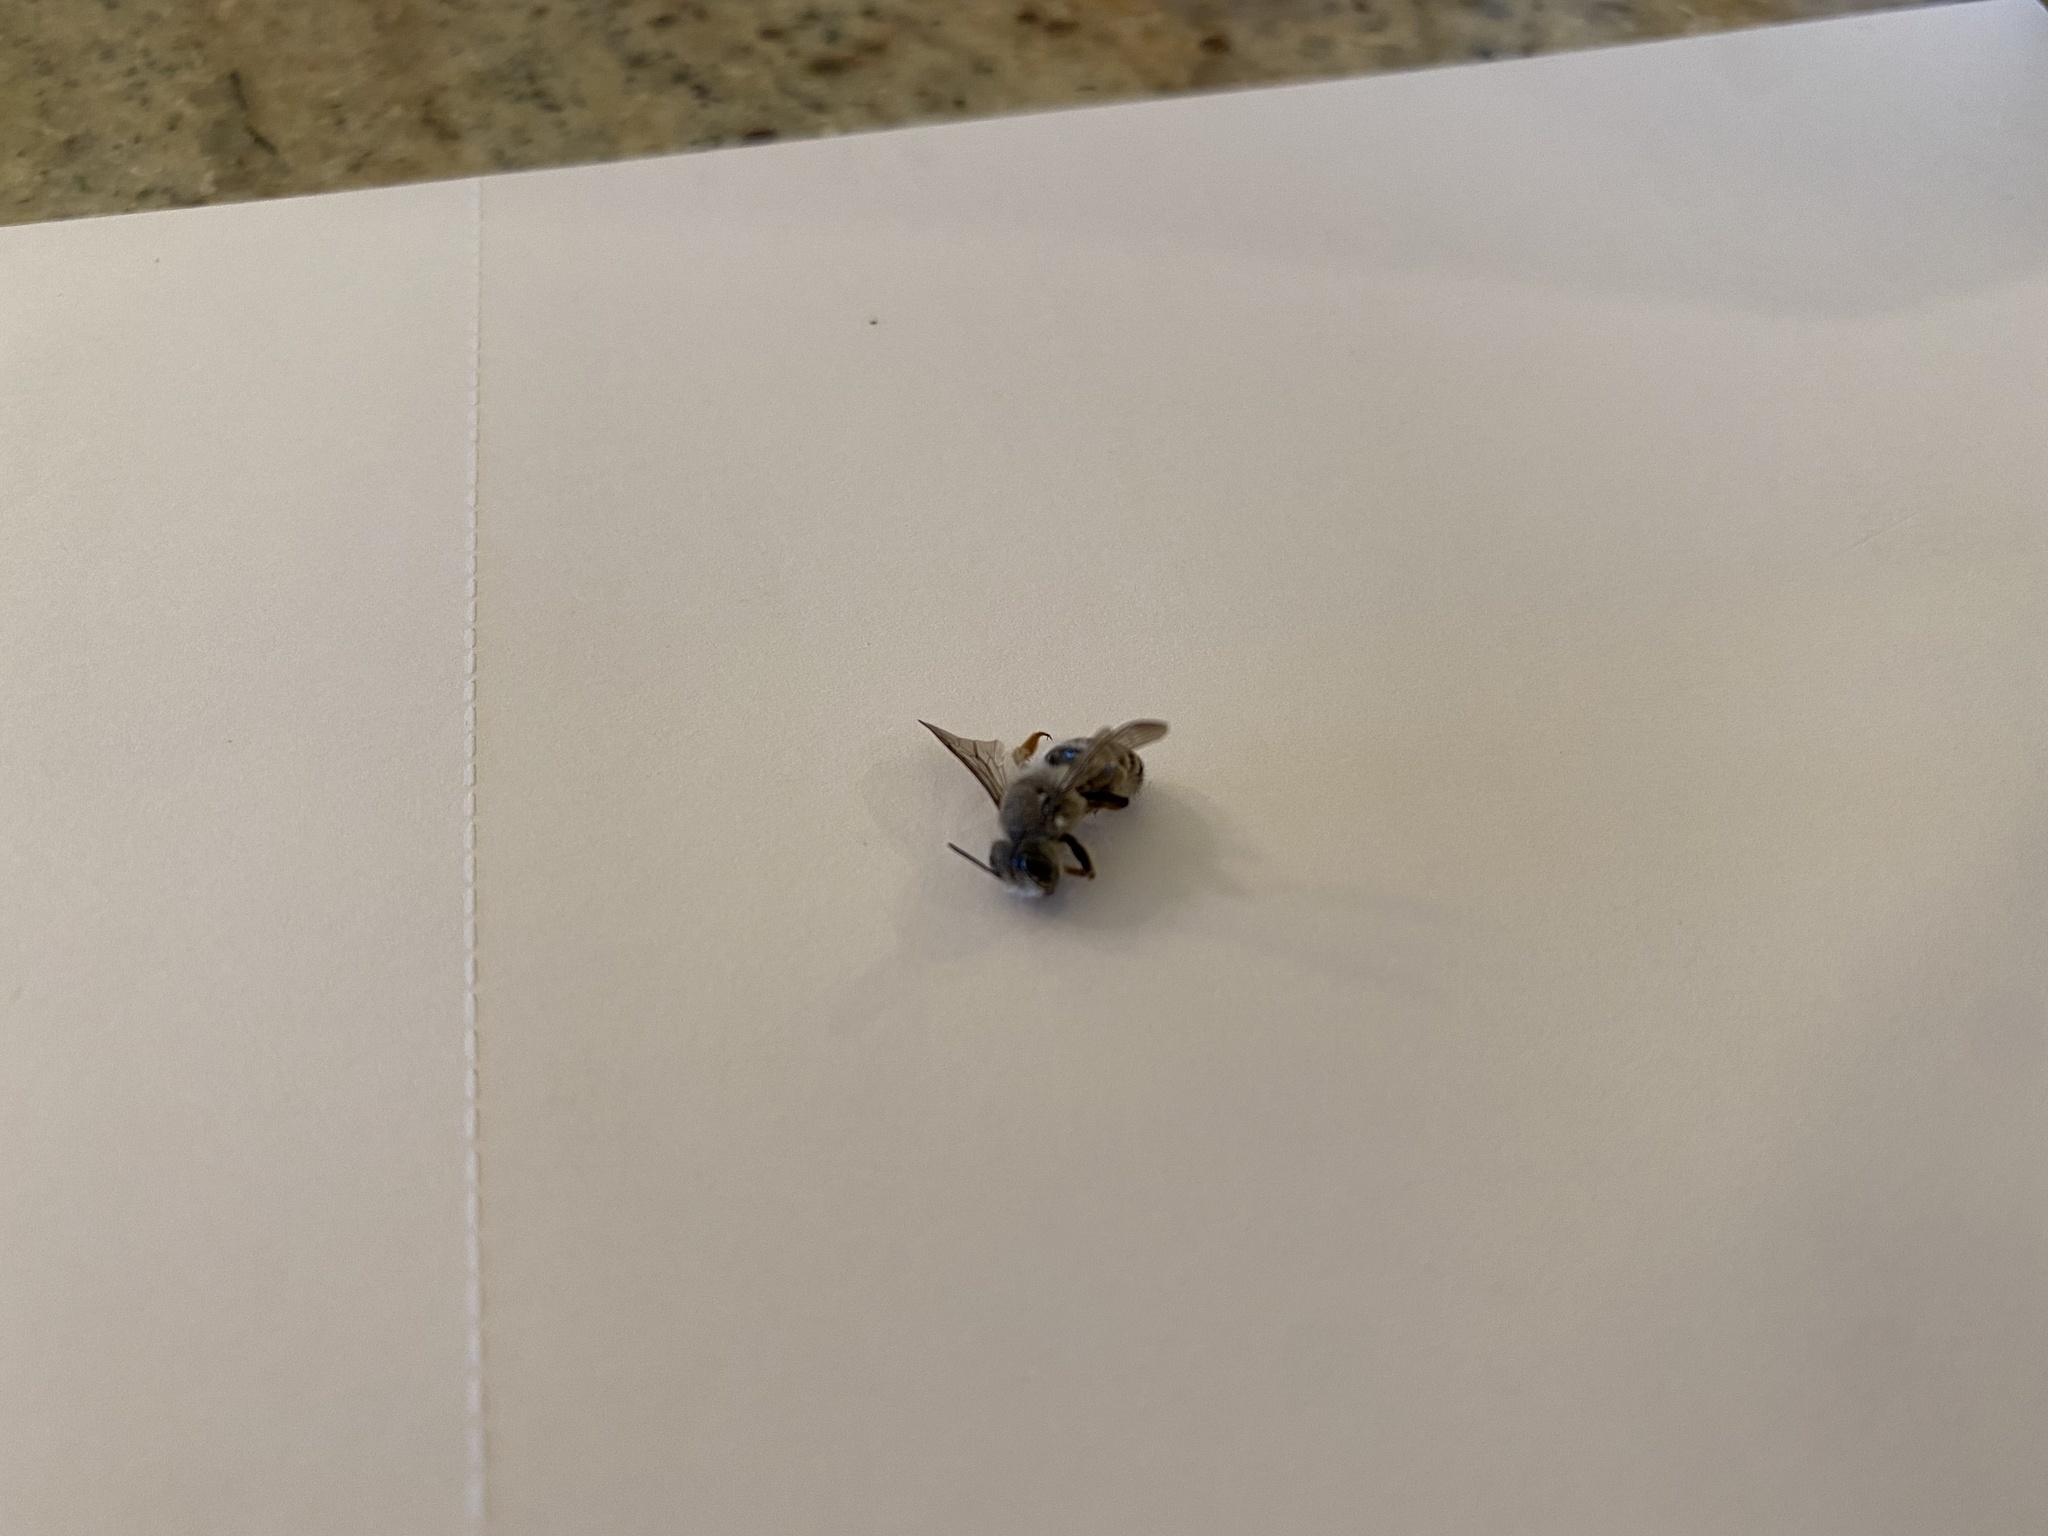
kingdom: Animalia
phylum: Arthropoda
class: Insecta
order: Hymenoptera
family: Megachilidae
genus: Megachile
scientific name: Megachile policaris
